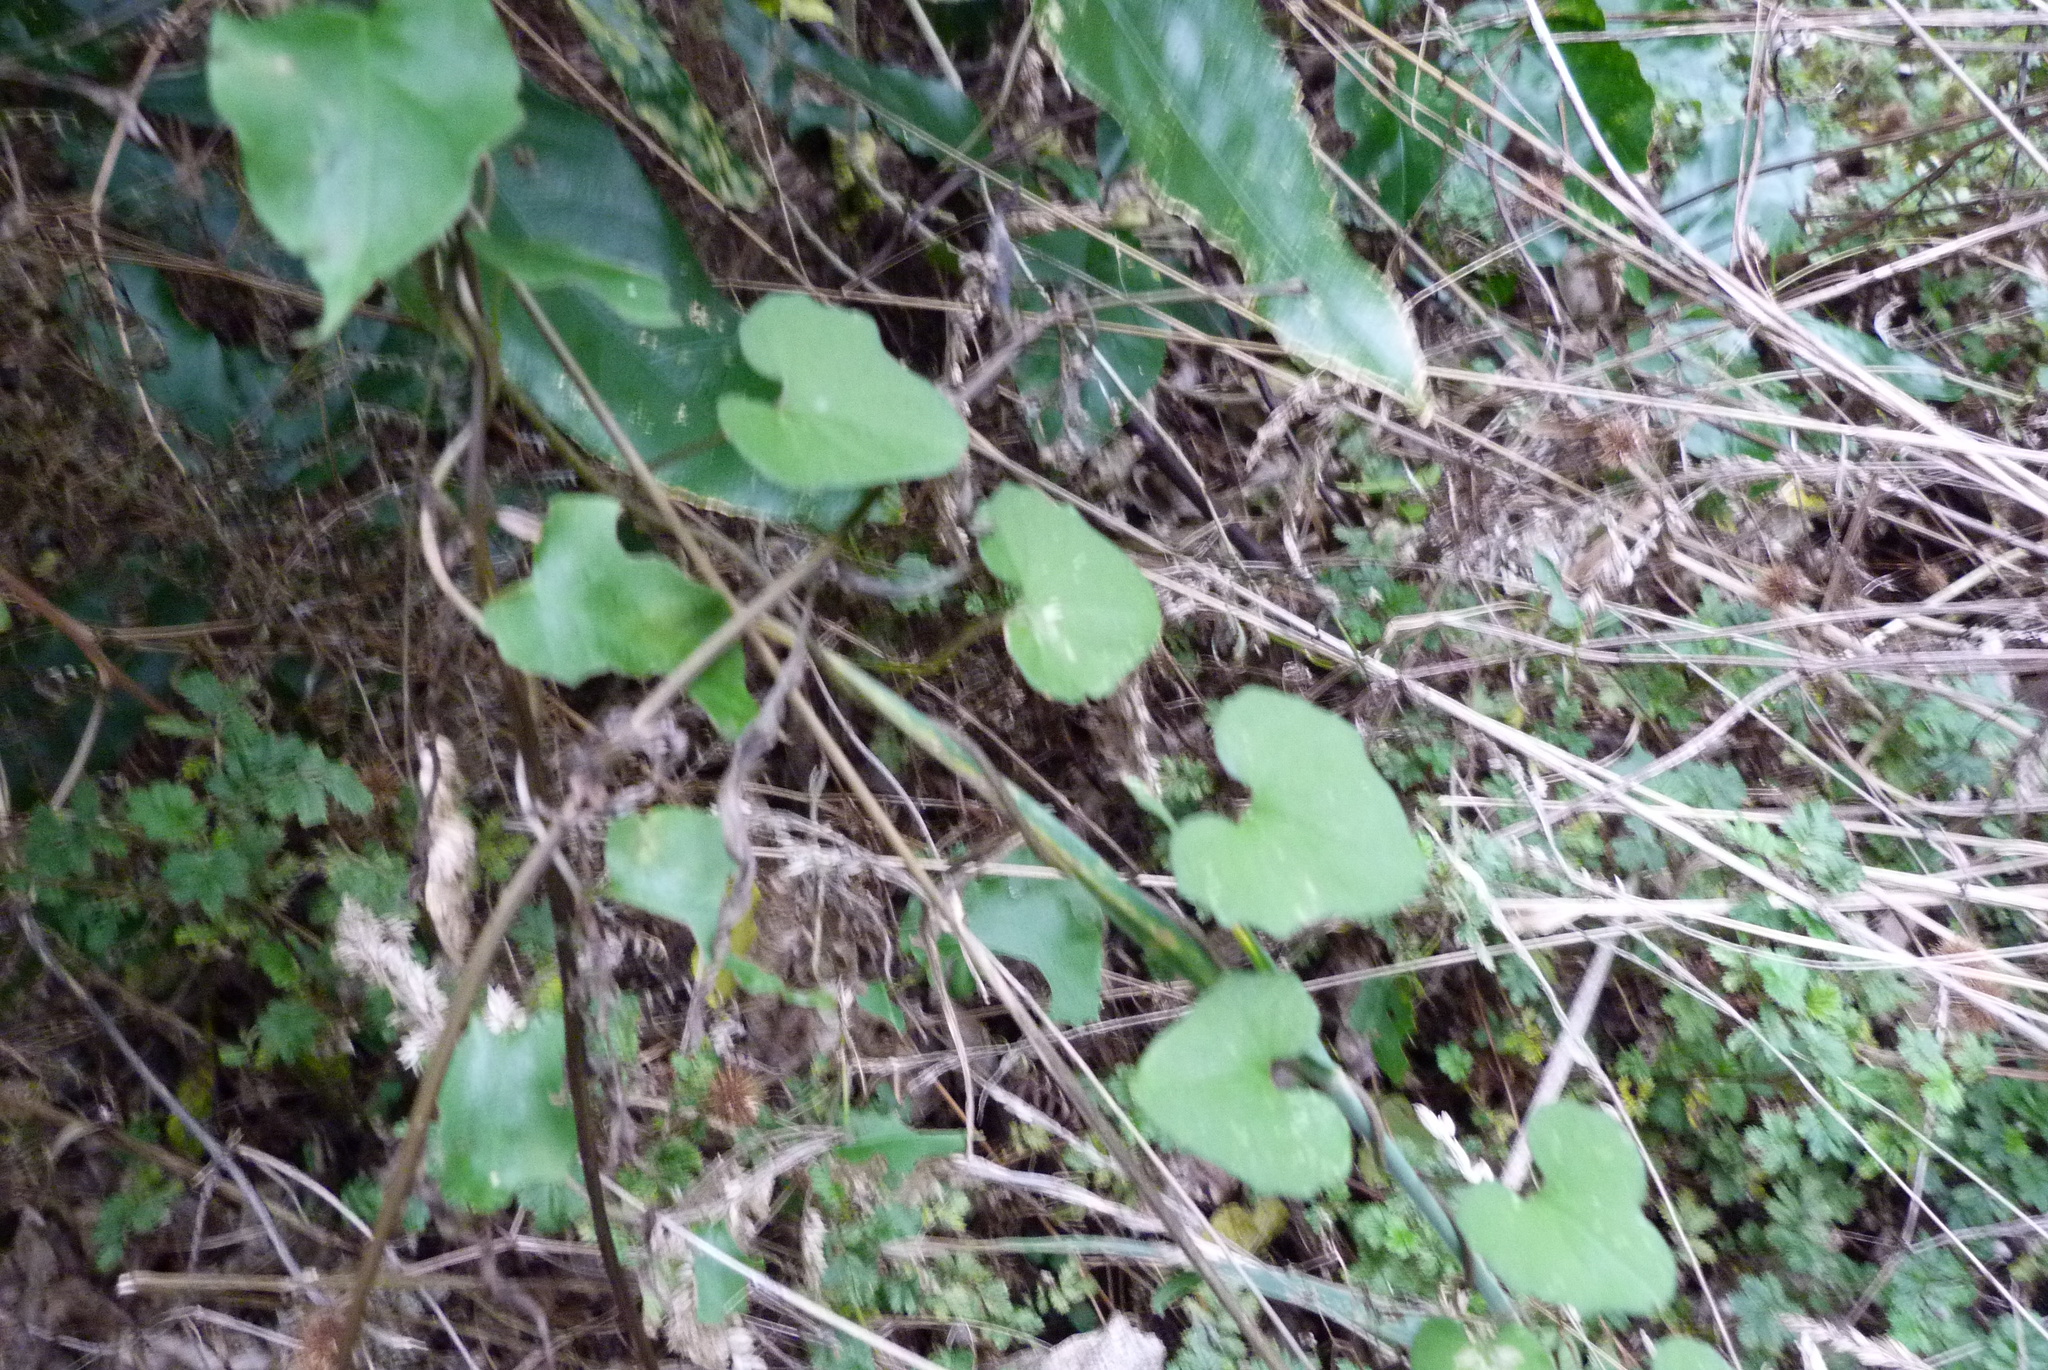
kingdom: Plantae
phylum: Tracheophyta
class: Magnoliopsida
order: Solanales
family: Convolvulaceae
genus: Calystegia
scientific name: Calystegia tuguriorum
